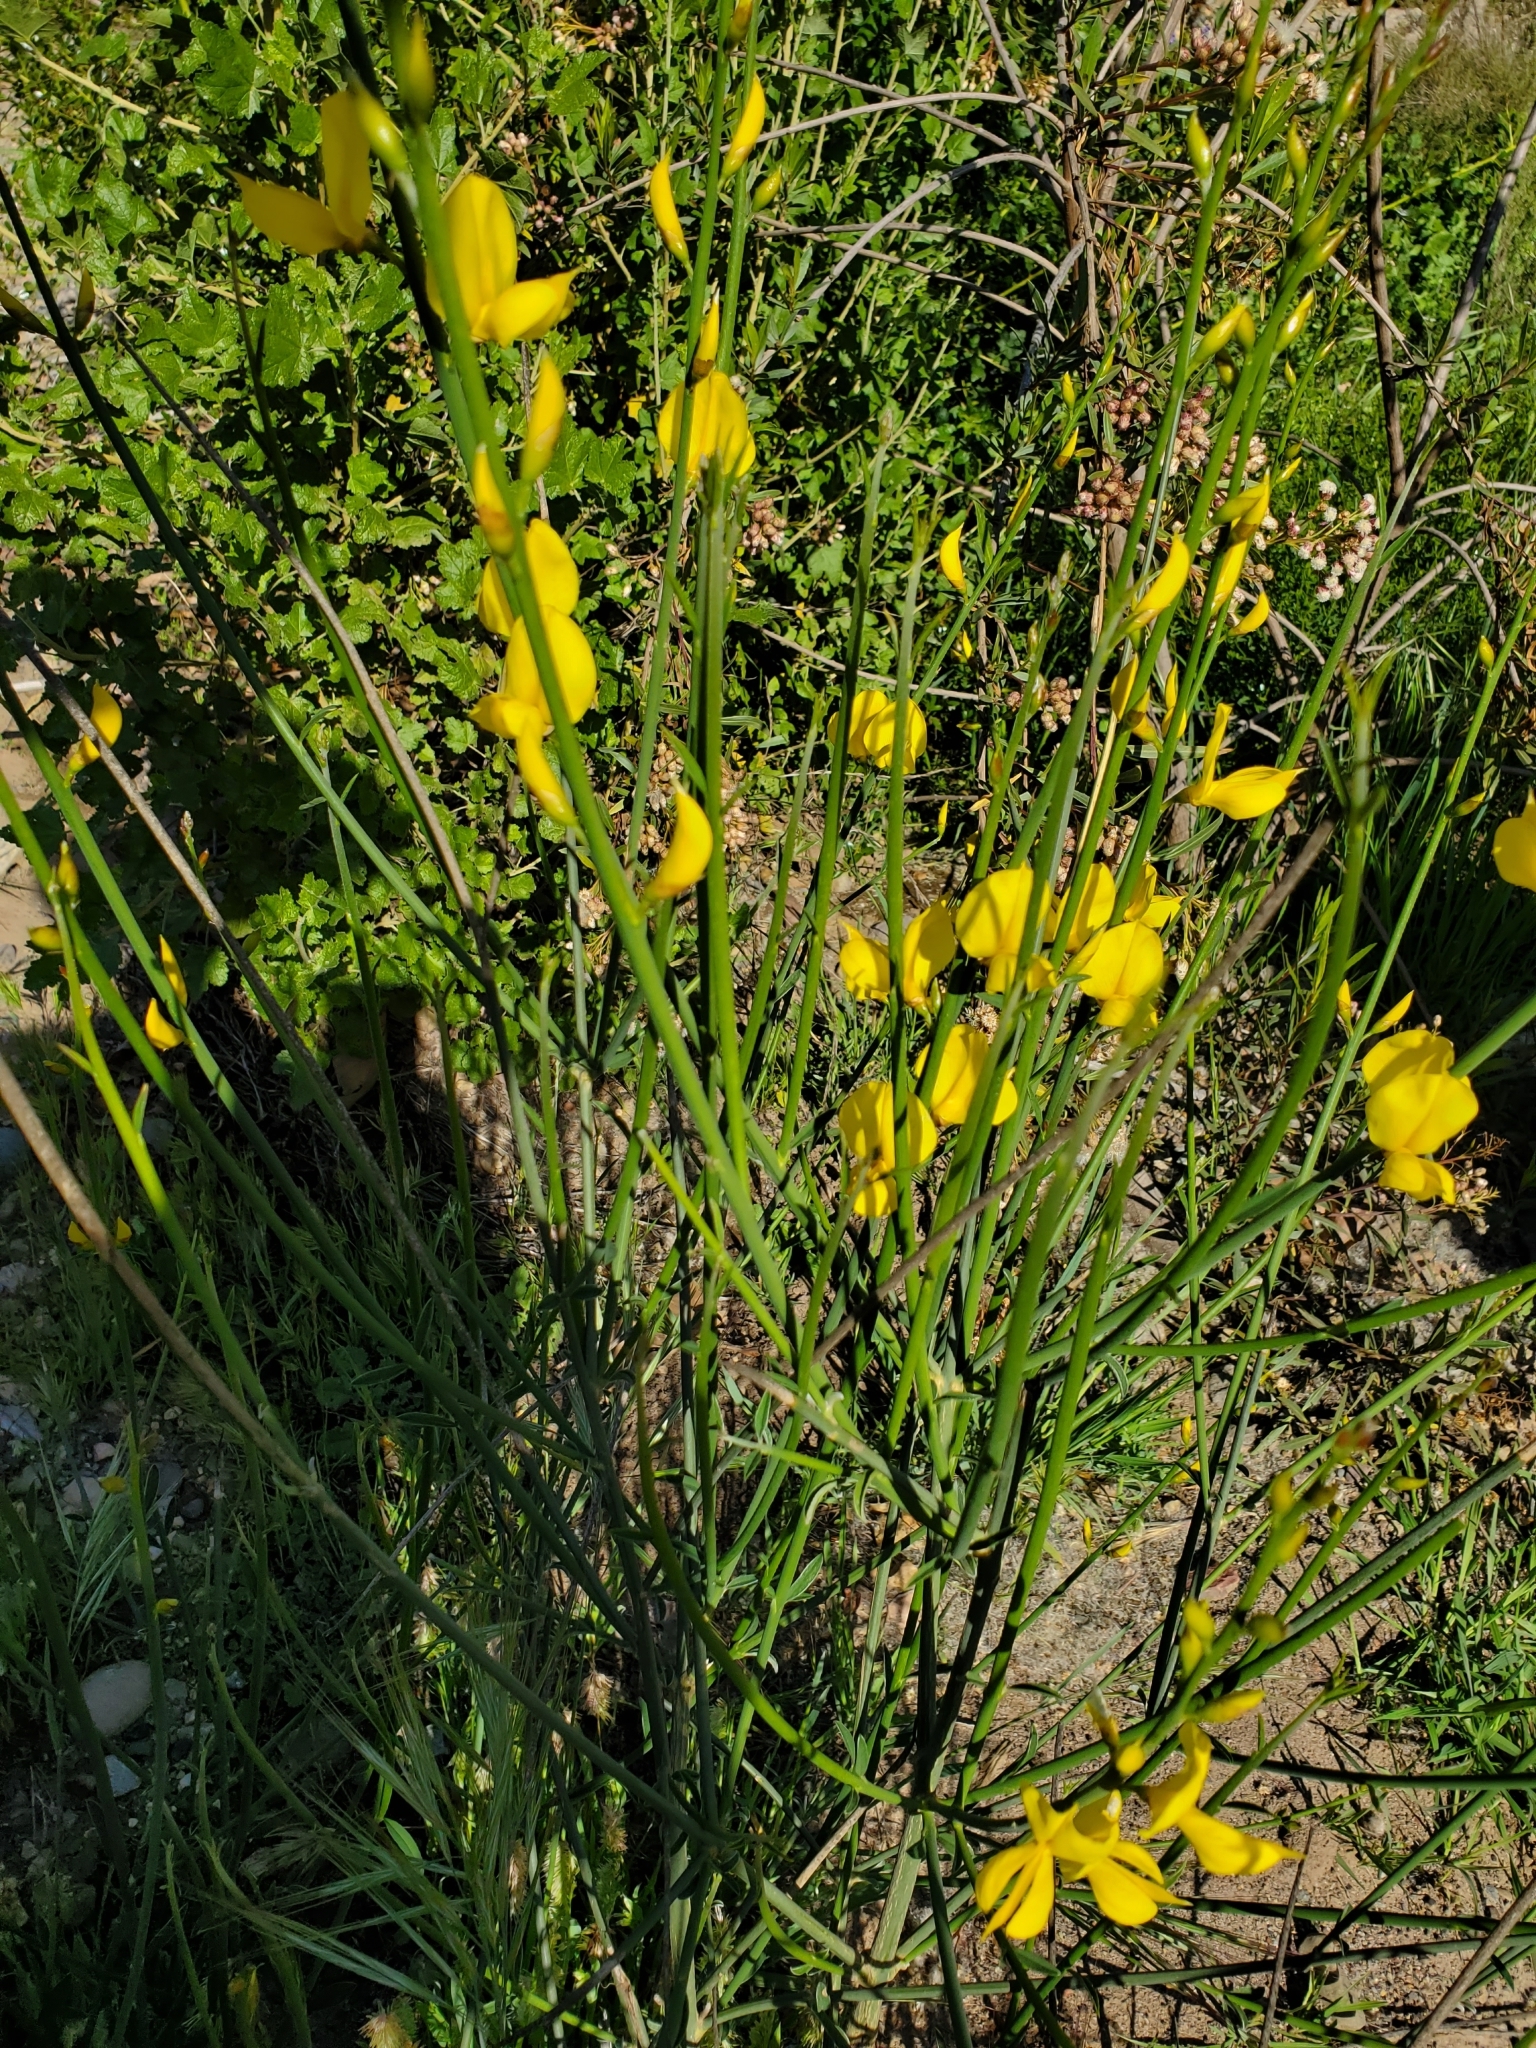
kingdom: Plantae
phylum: Tracheophyta
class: Magnoliopsida
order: Fabales
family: Fabaceae
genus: Spartium
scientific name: Spartium junceum
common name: Spanish broom
